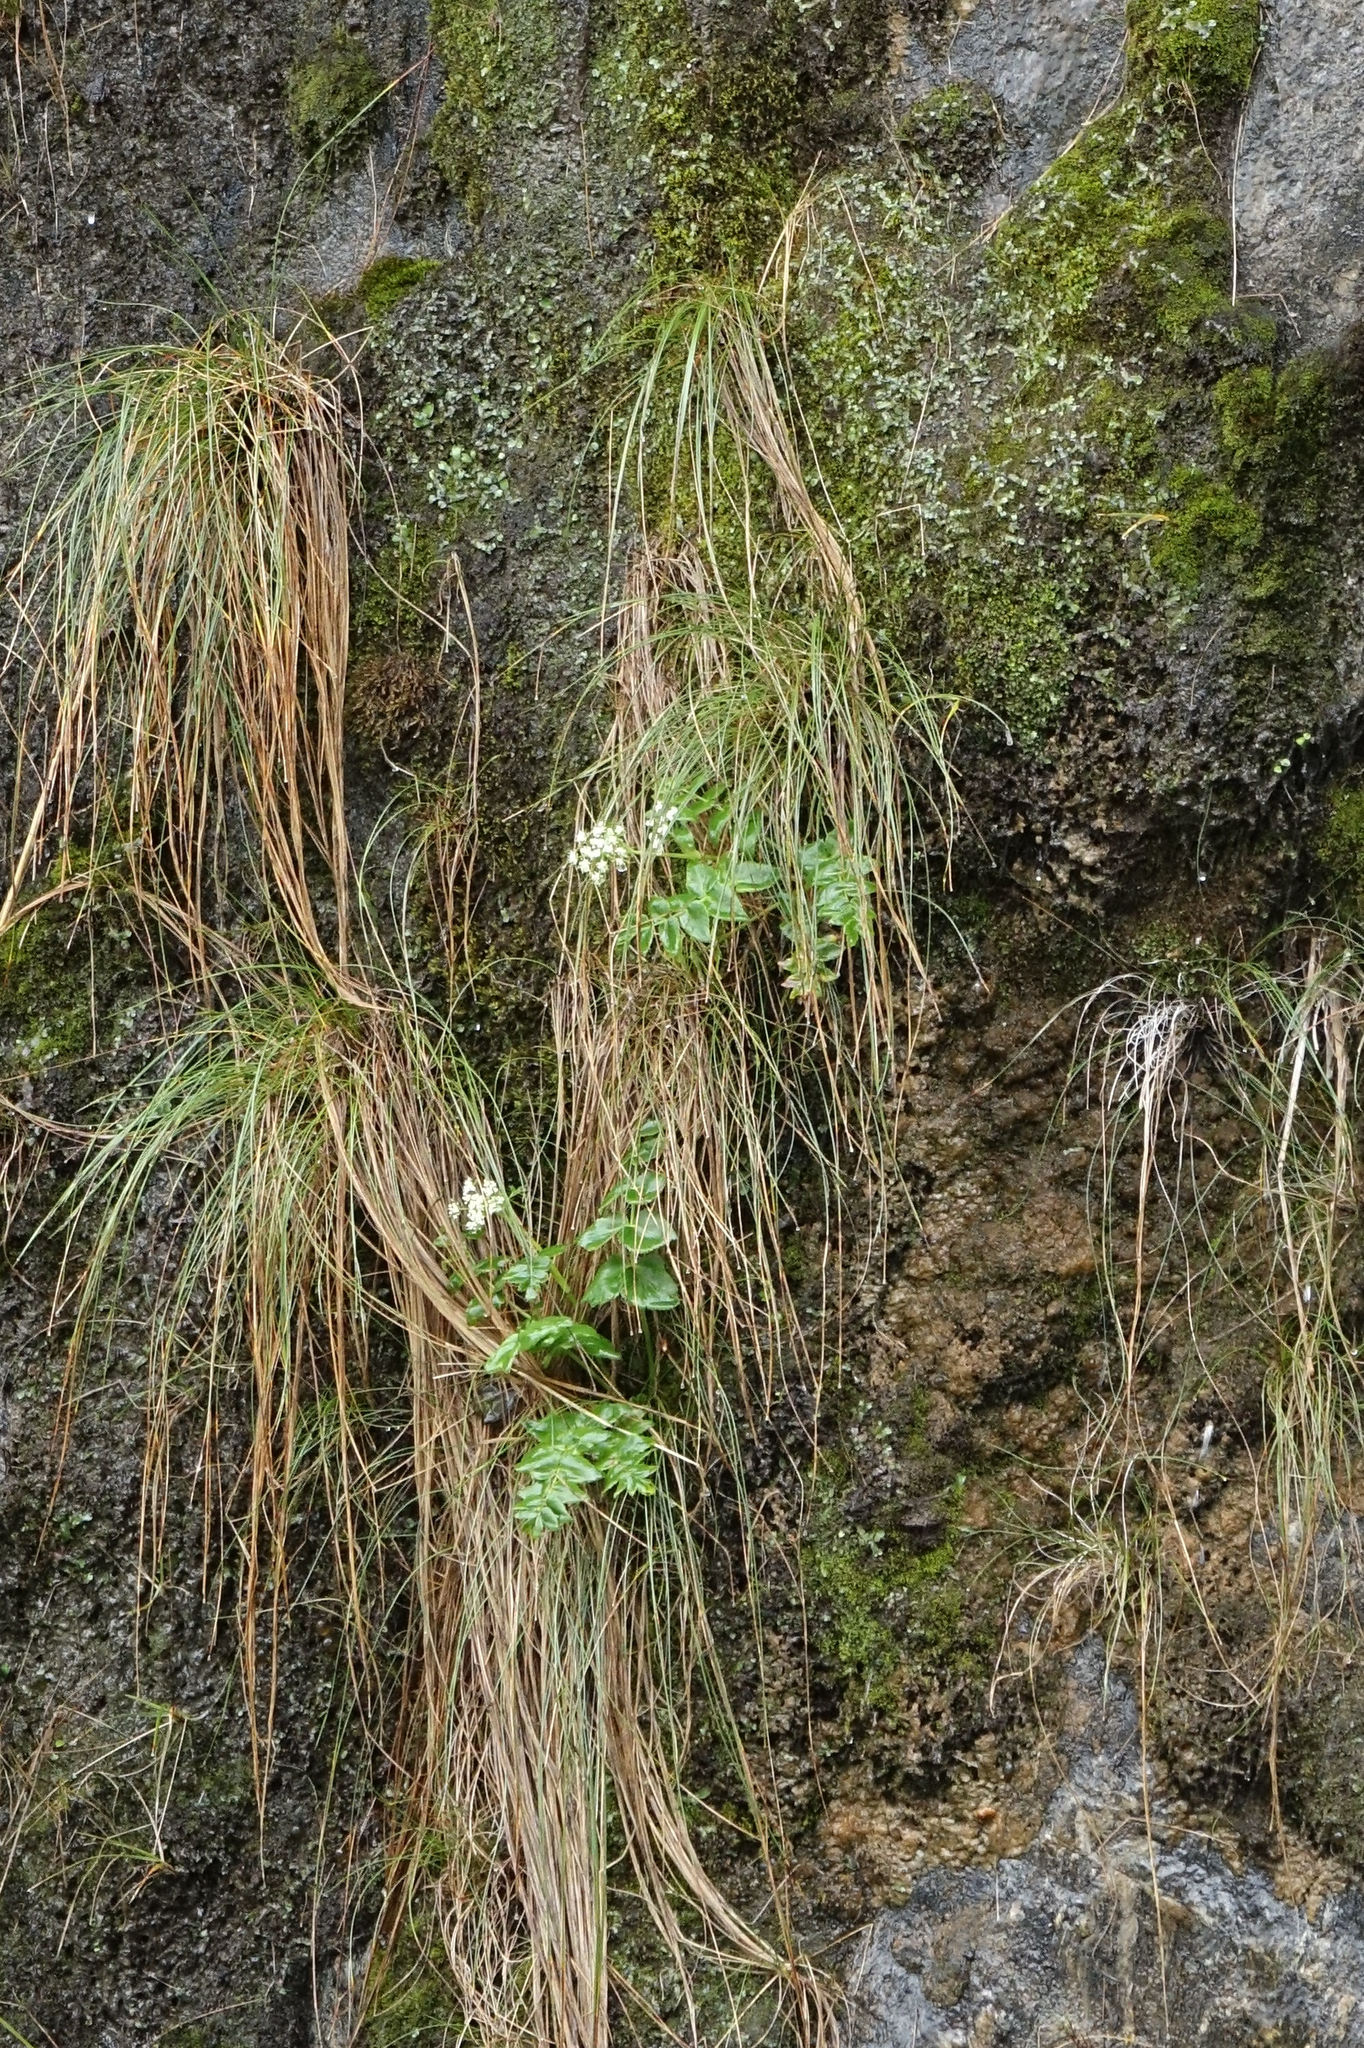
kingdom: Plantae
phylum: Tracheophyta
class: Magnoliopsida
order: Apiales
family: Apiaceae
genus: Gingidia
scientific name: Gingidia montana
